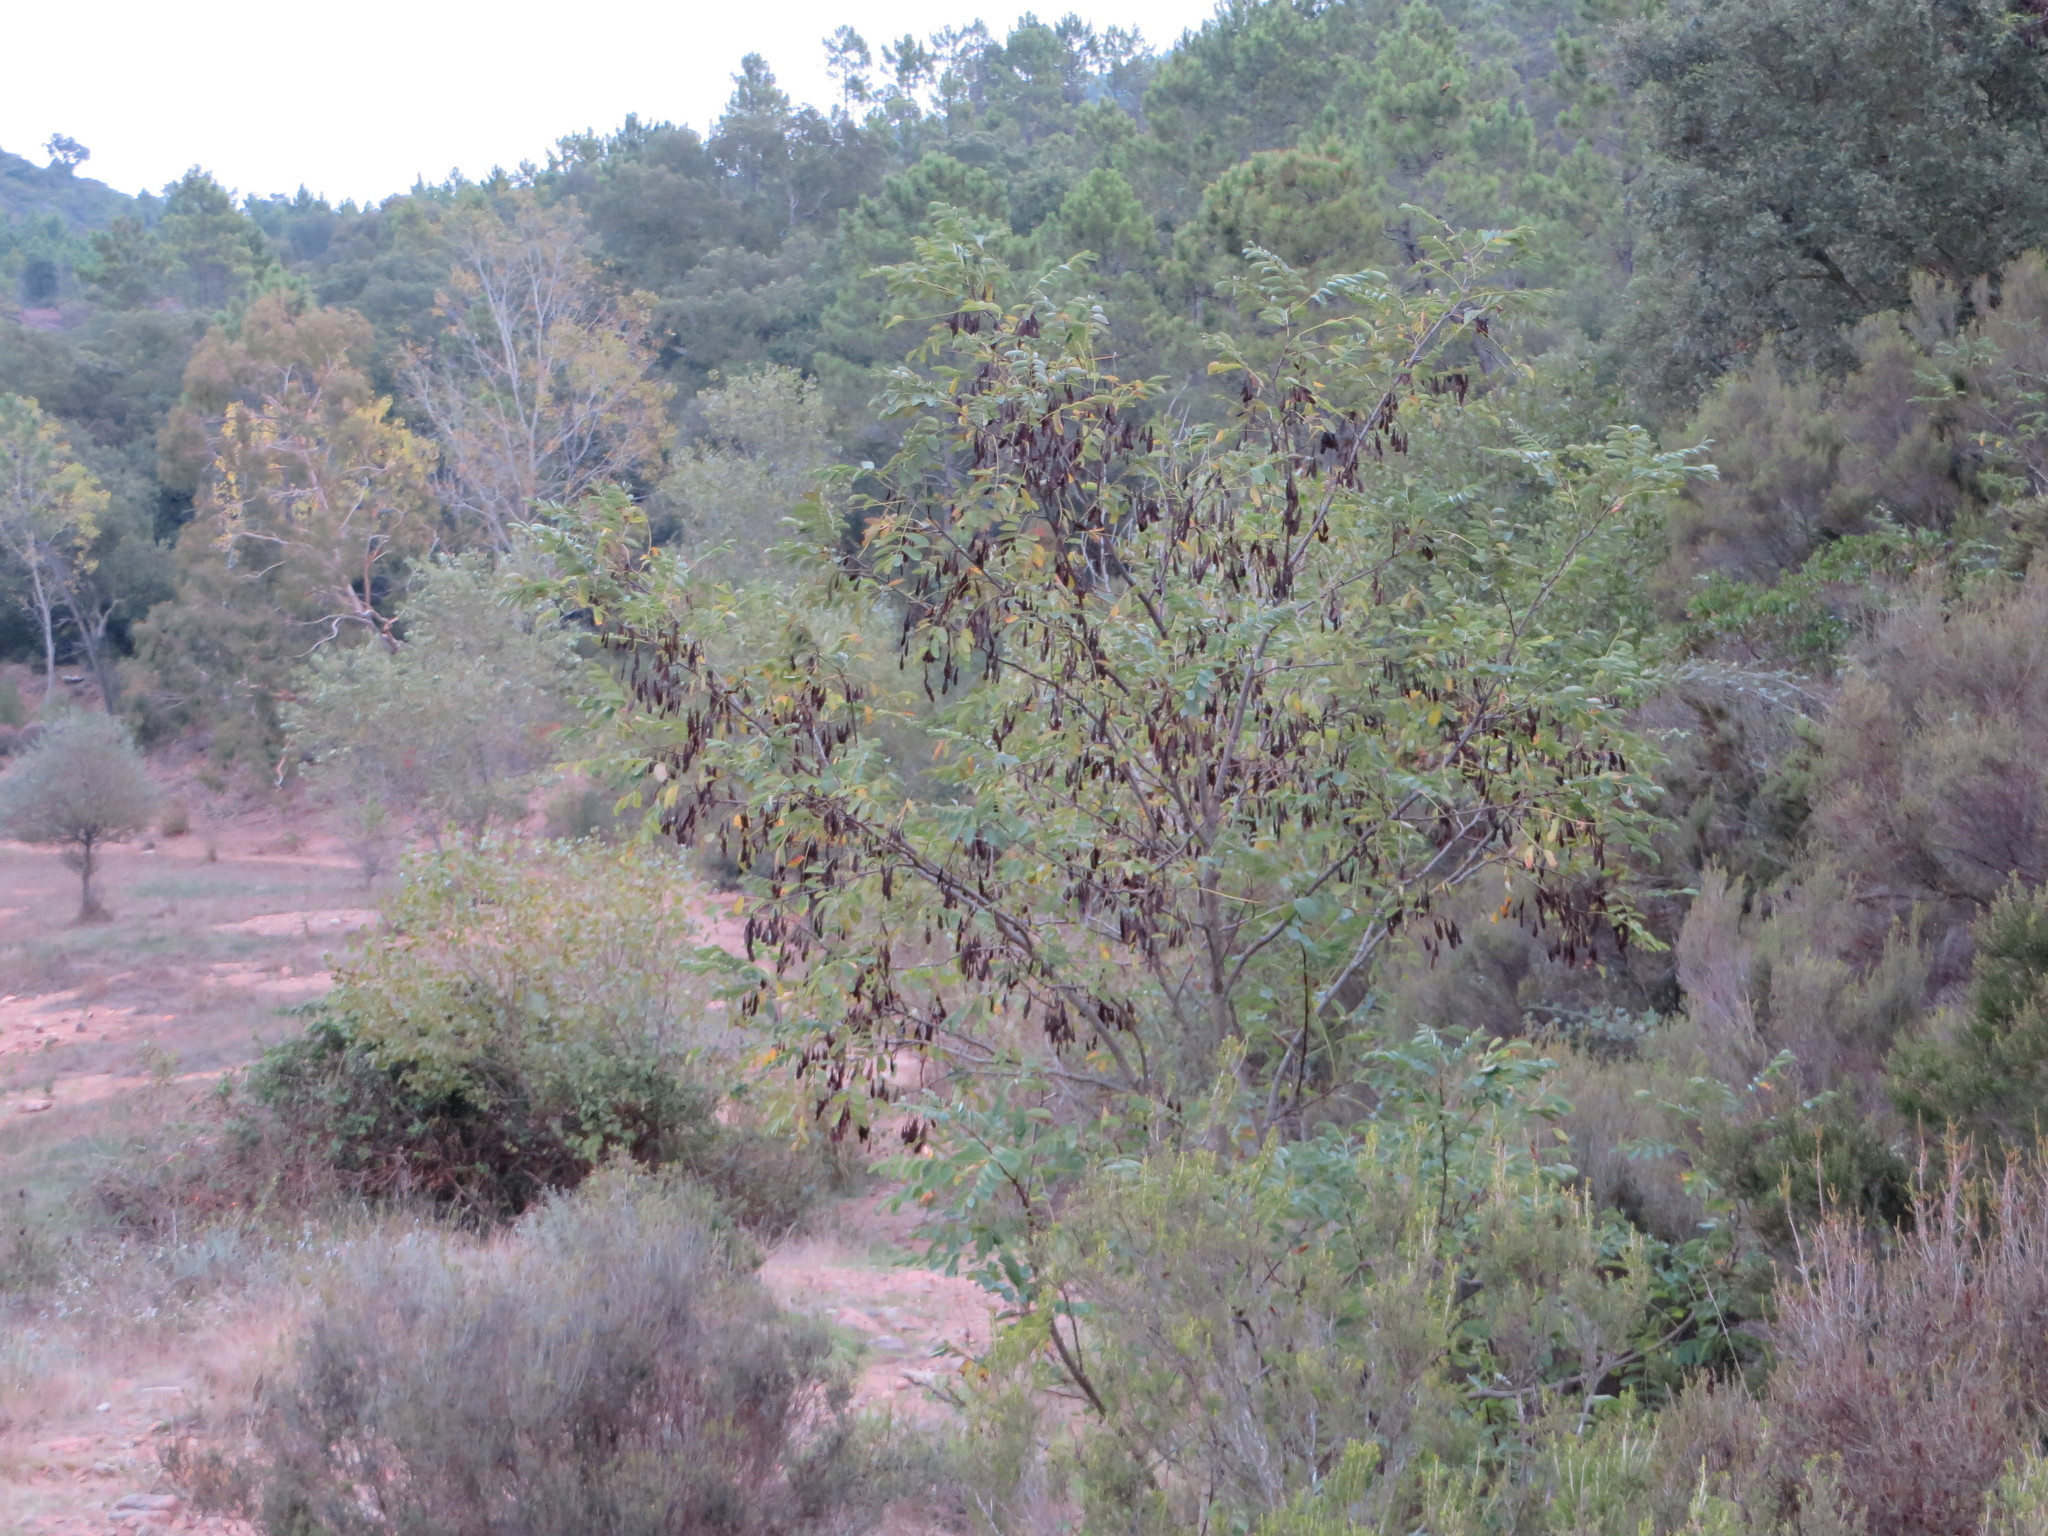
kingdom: Plantae
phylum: Tracheophyta
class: Magnoliopsida
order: Fabales
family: Fabaceae
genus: Robinia
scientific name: Robinia pseudoacacia
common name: Black locust
